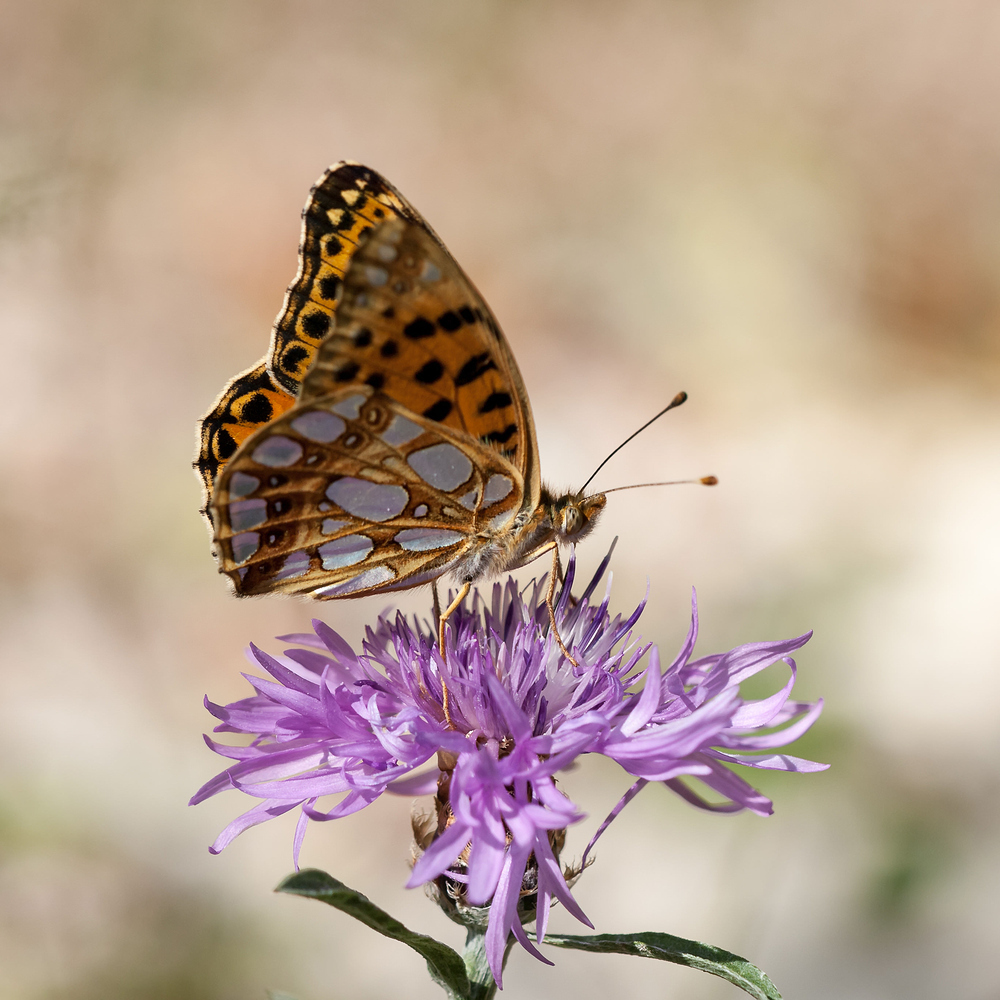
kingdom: Animalia
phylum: Arthropoda
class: Insecta
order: Lepidoptera
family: Nymphalidae
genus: Issoria
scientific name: Issoria lathonia
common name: Queen of spain fritillary
